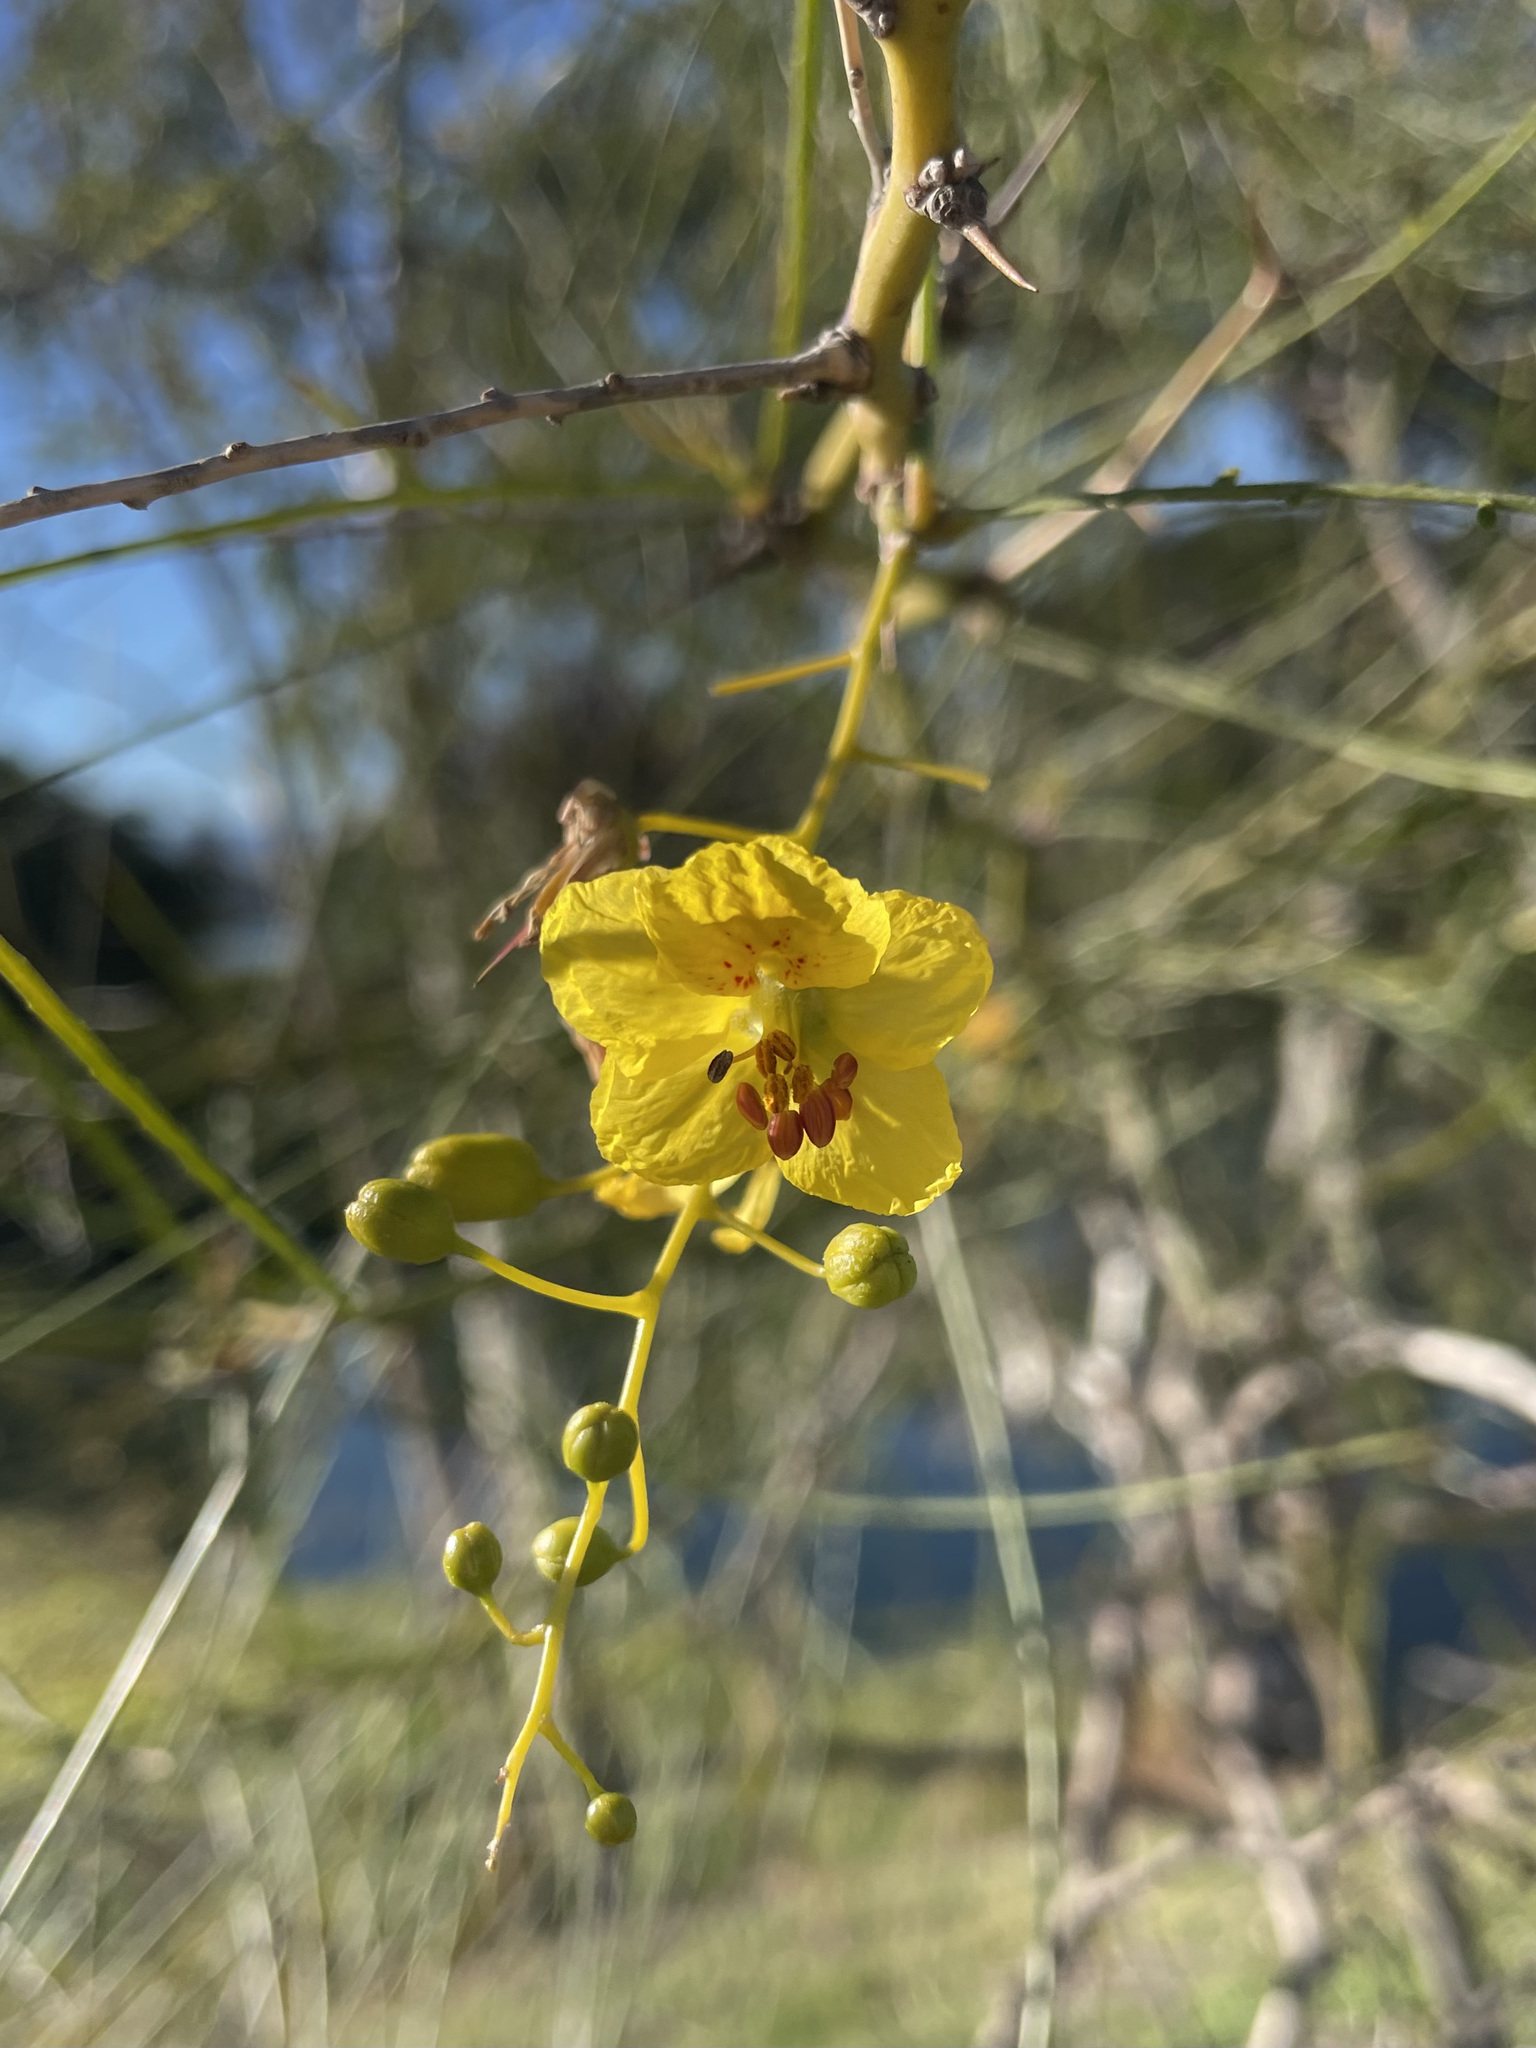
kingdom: Plantae
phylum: Tracheophyta
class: Magnoliopsida
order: Fabales
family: Fabaceae
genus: Parkinsonia
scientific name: Parkinsonia aculeata
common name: Jerusalem thorn
